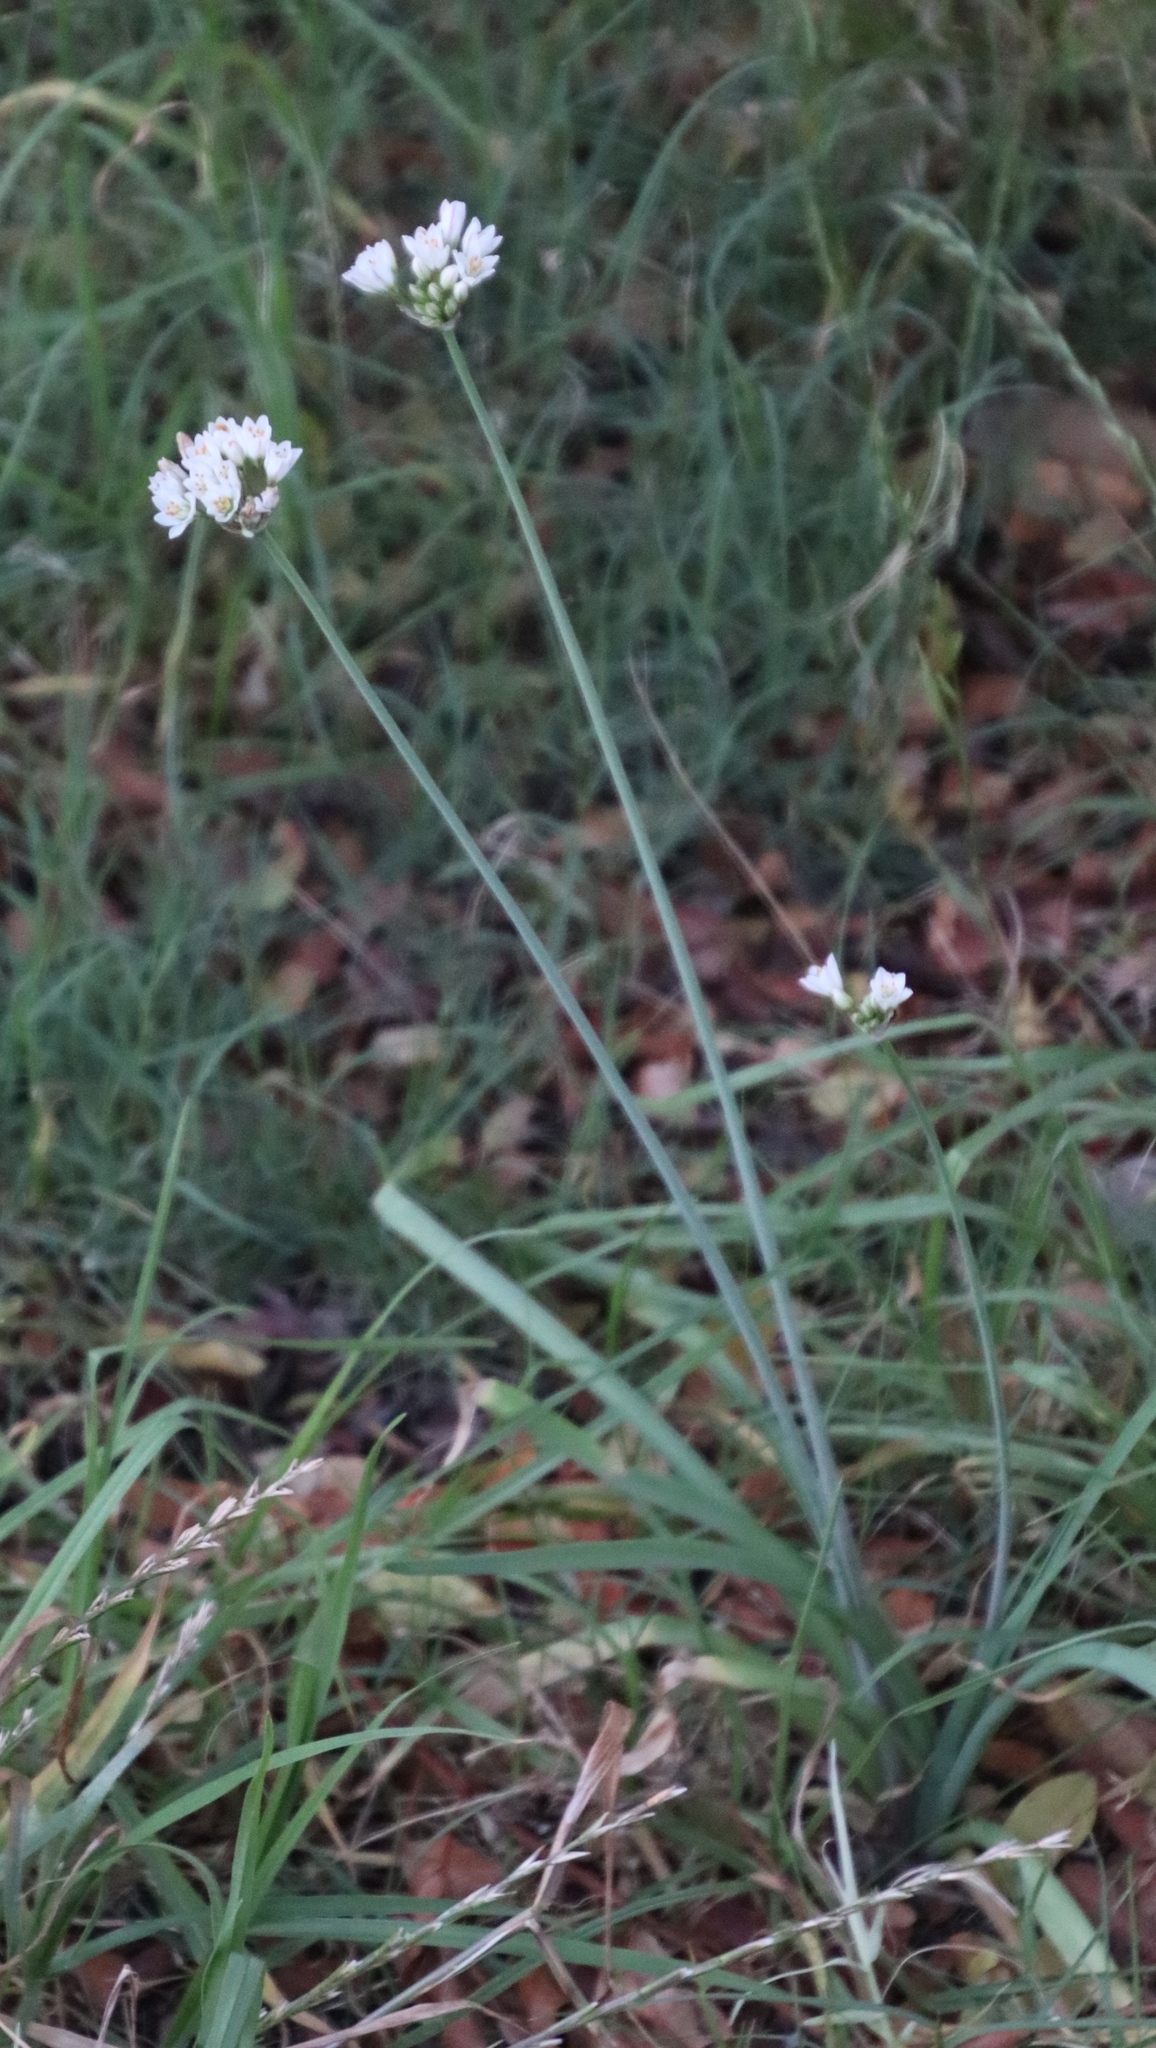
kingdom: Plantae
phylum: Tracheophyta
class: Liliopsida
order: Asparagales
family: Amaryllidaceae
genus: Nothoscordum
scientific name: Nothoscordum gracile
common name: Slender false garlic
